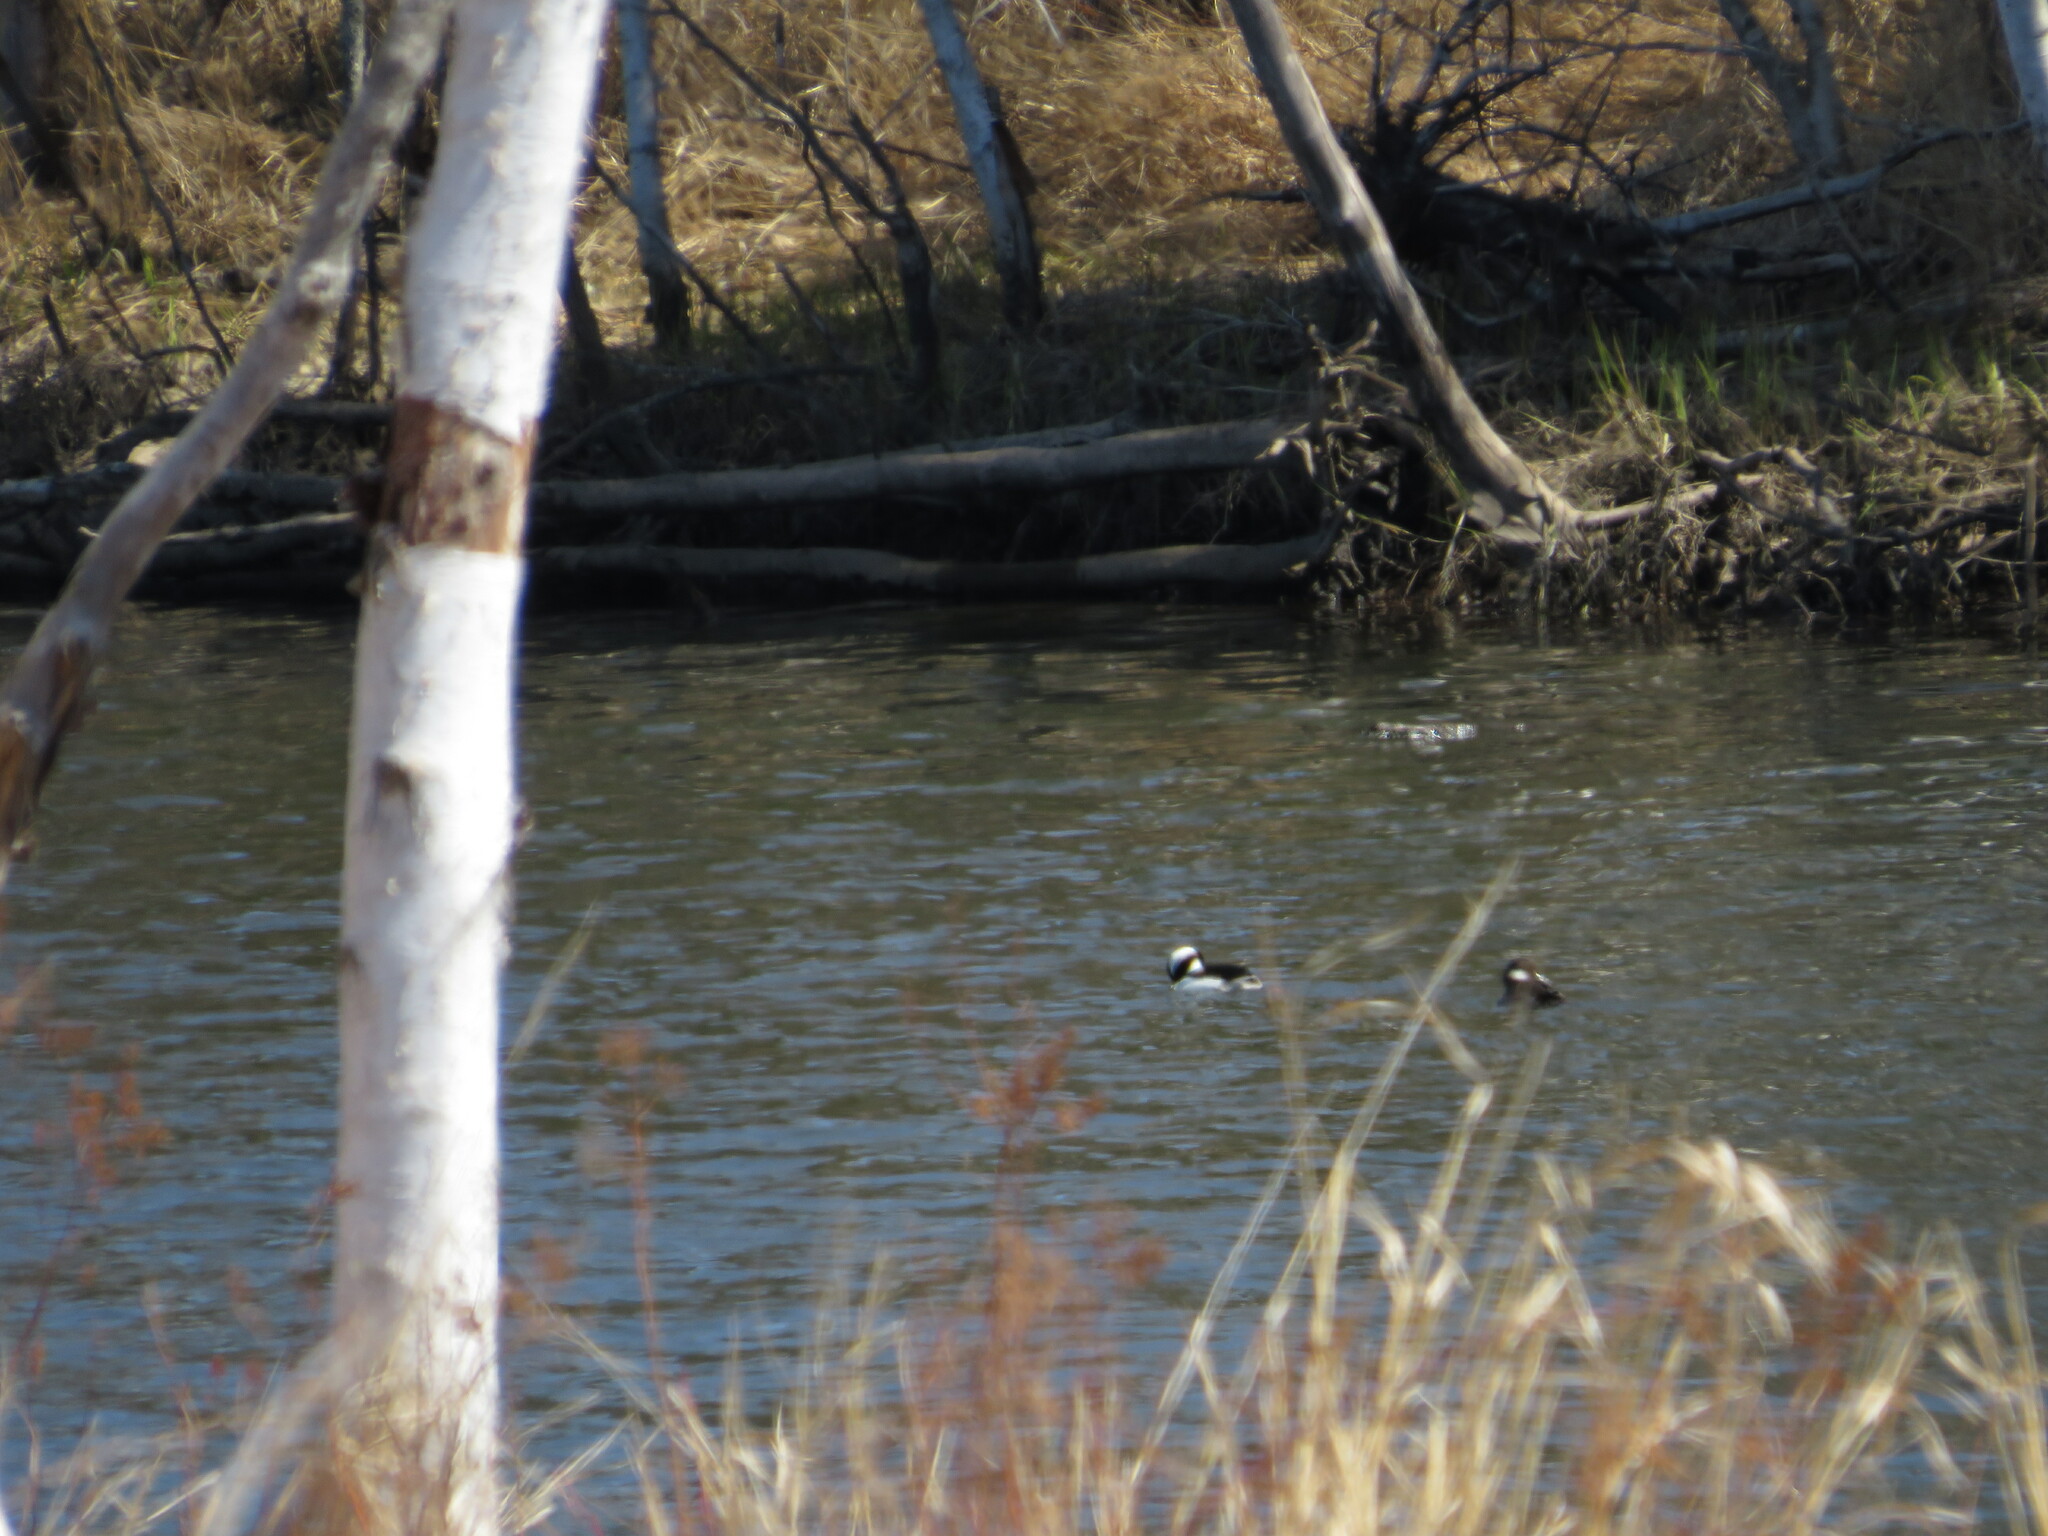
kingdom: Animalia
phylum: Chordata
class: Aves
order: Anseriformes
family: Anatidae
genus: Bucephala
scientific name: Bucephala albeola
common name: Bufflehead
